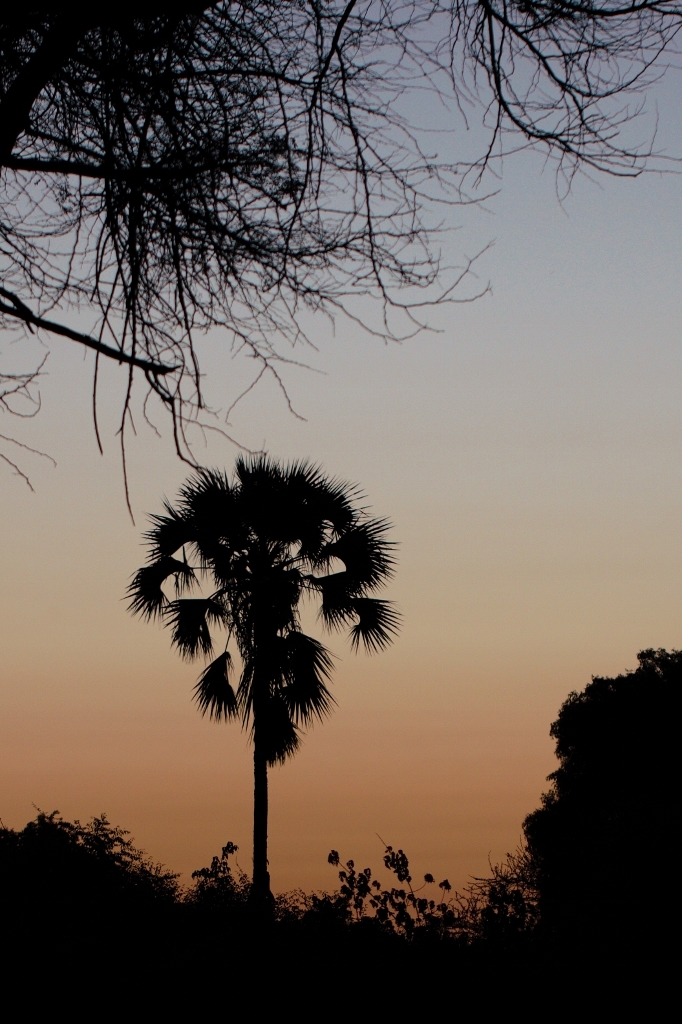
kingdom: Plantae
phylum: Tracheophyta
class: Liliopsida
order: Arecales
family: Arecaceae
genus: Hyphaene
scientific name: Hyphaene petersiana
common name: African ivory nut palm
